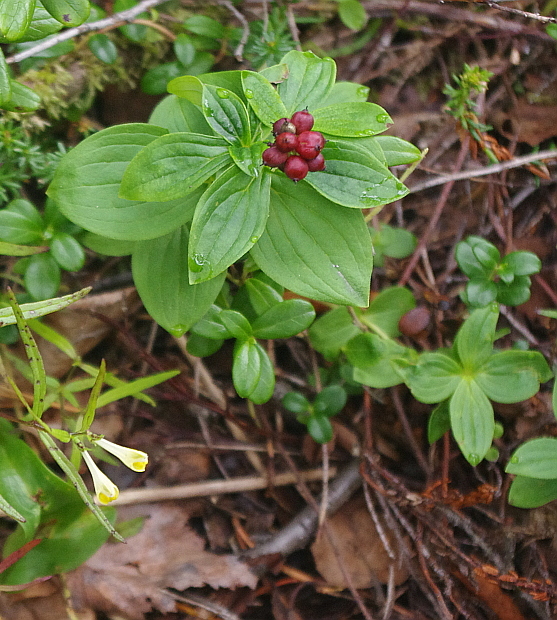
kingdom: Plantae
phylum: Tracheophyta
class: Magnoliopsida
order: Cornales
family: Cornaceae
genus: Cornus
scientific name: Cornus suecica
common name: Dwarf cornel
